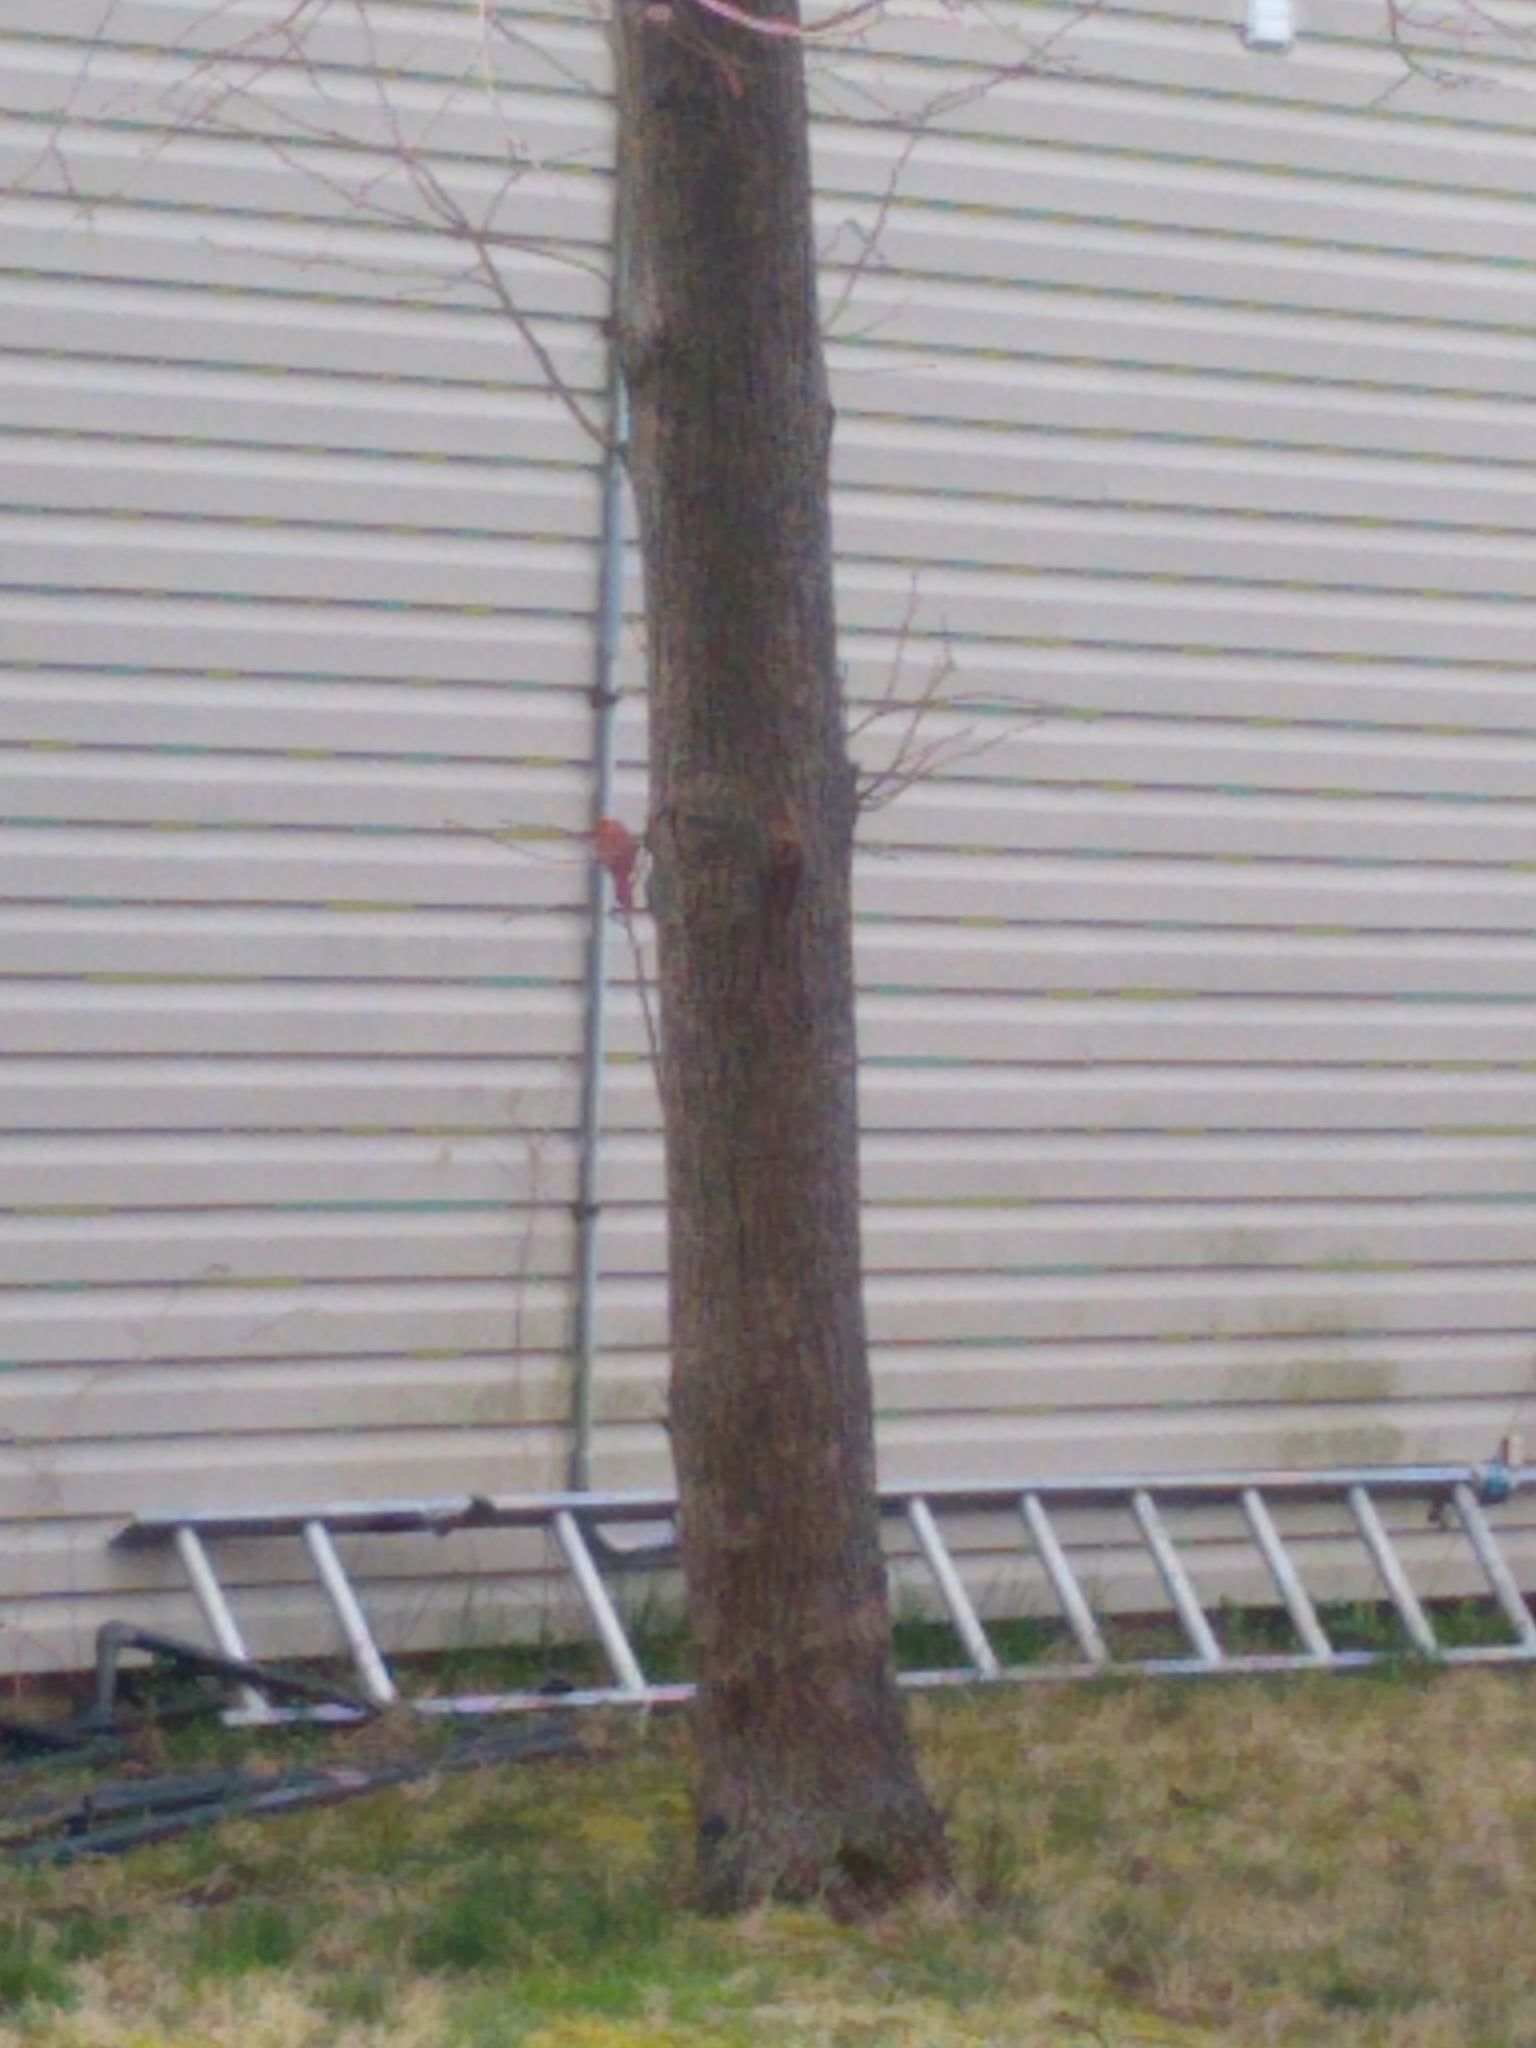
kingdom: Animalia
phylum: Chordata
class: Aves
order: Passeriformes
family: Cardinalidae
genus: Cardinalis
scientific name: Cardinalis cardinalis
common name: Northern cardinal
